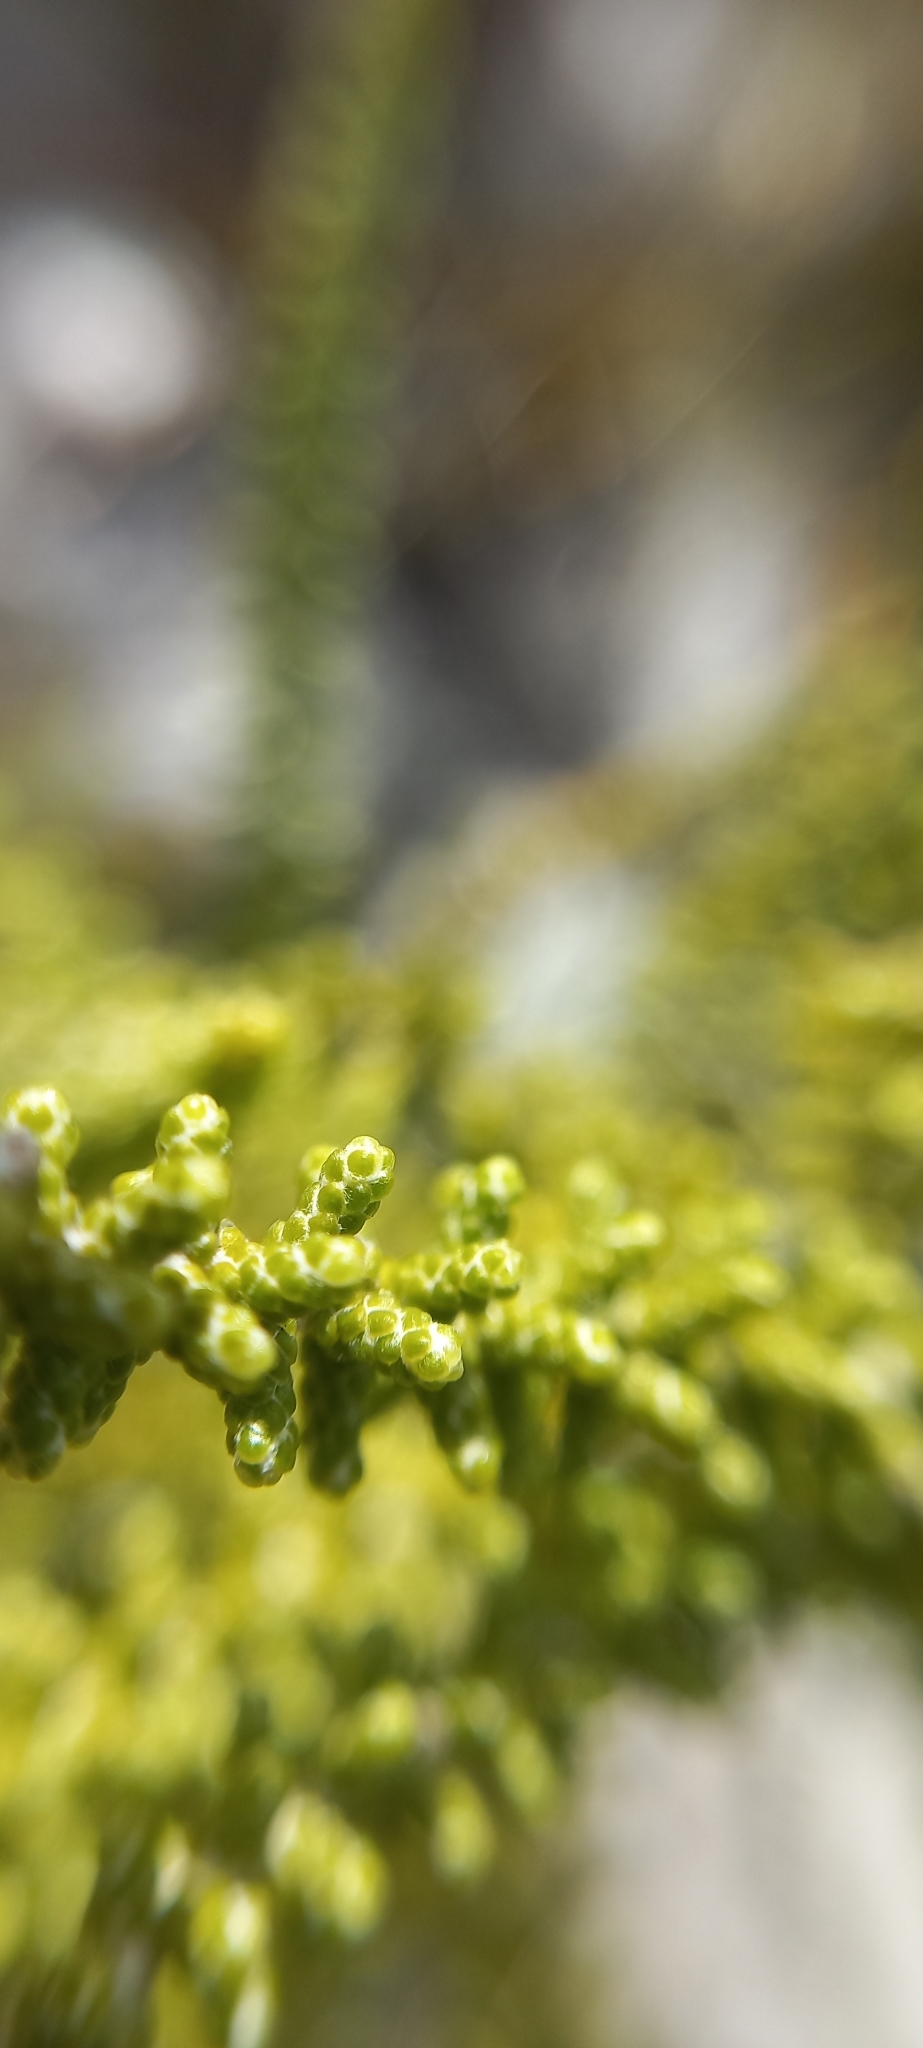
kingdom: Plantae
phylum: Tracheophyta
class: Magnoliopsida
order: Asterales
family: Asteraceae
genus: Phaenocoma
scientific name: Phaenocoma prolifera
